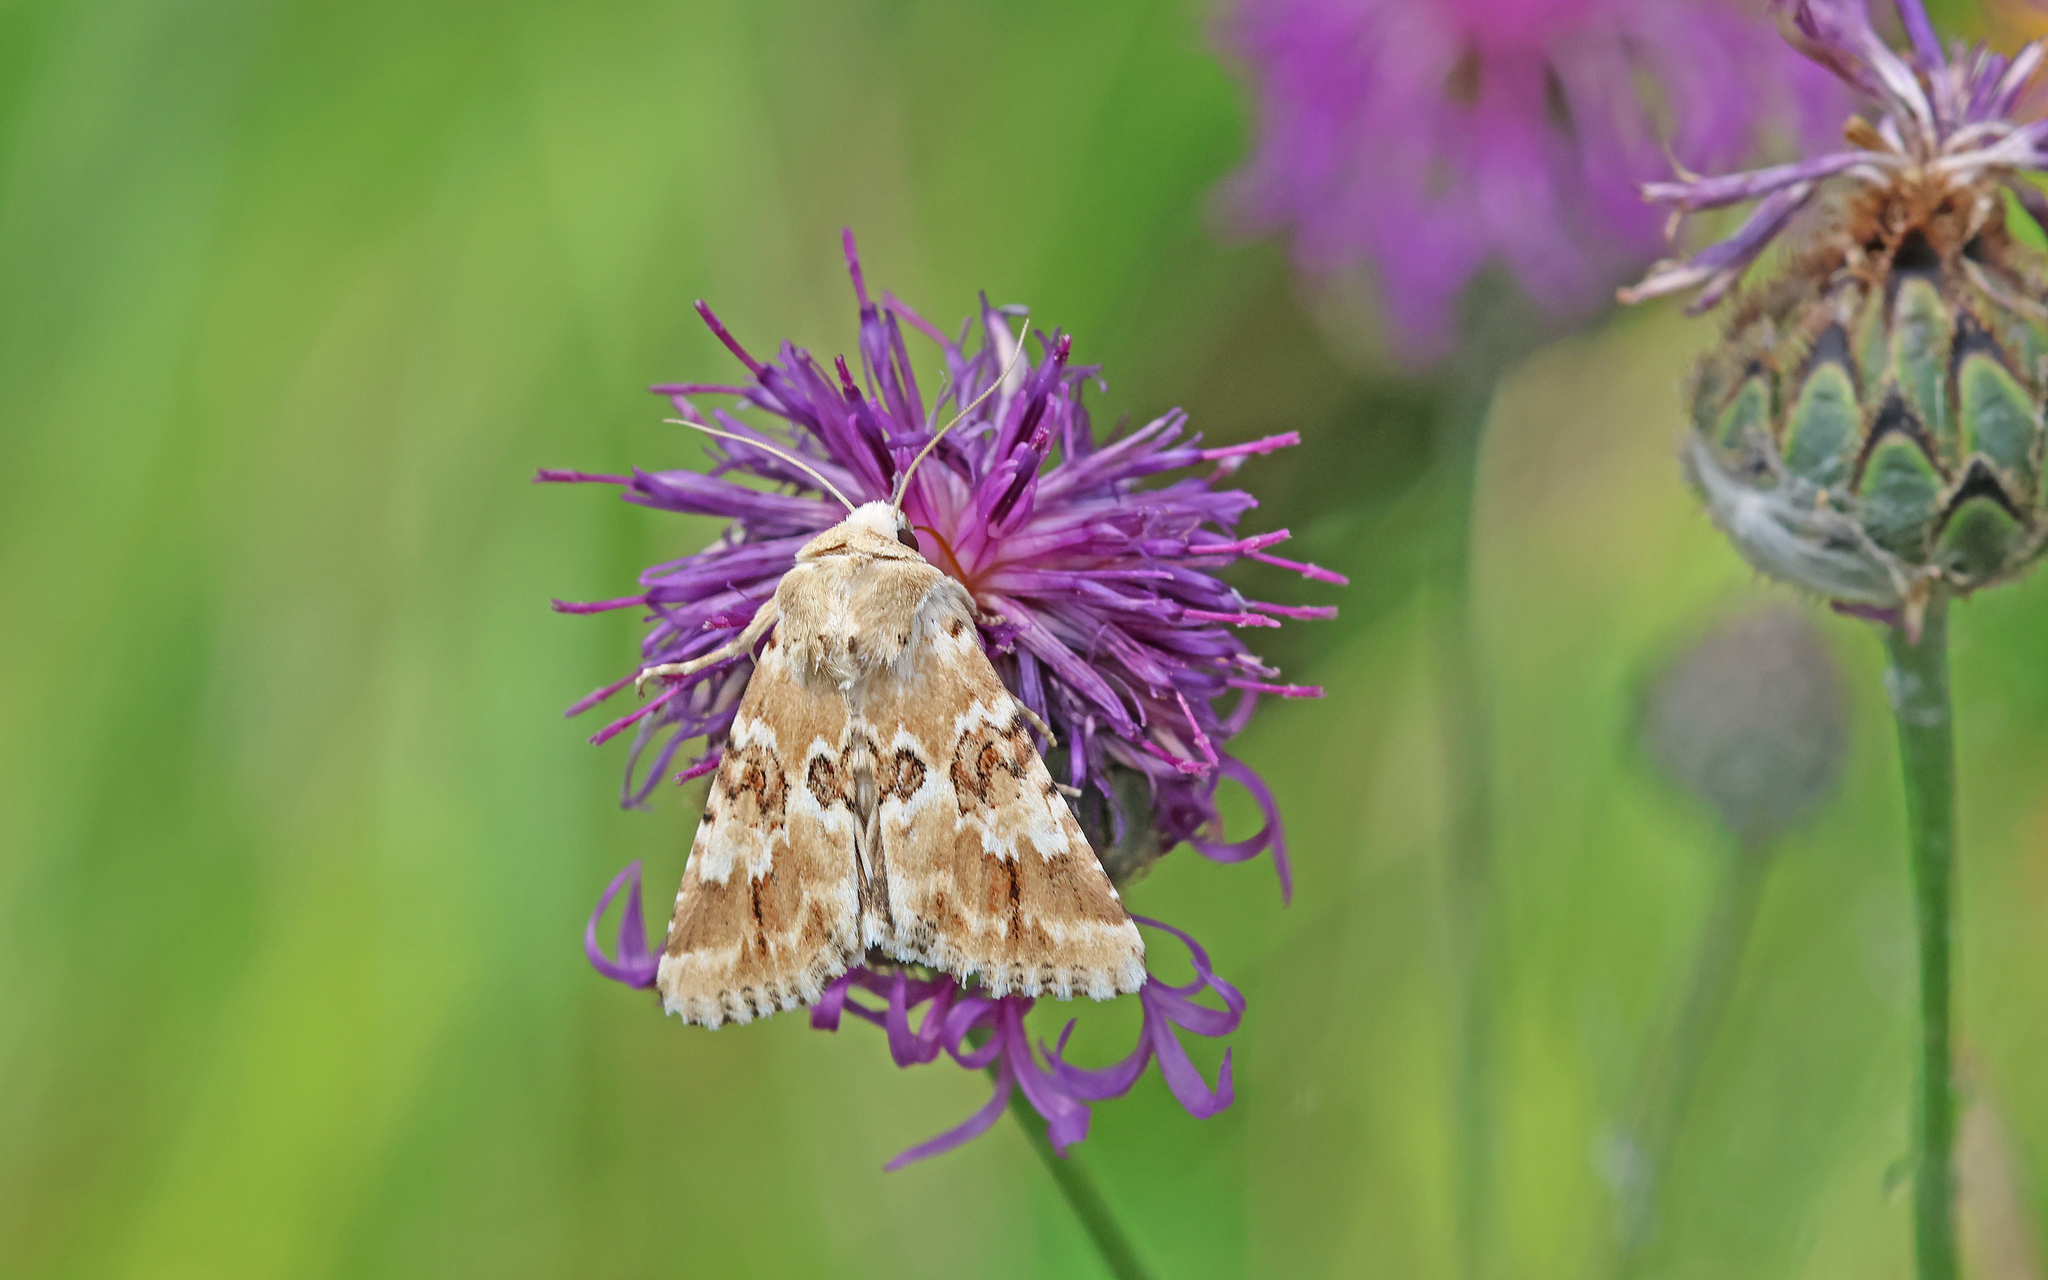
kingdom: Animalia
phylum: Arthropoda
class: Insecta
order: Lepidoptera
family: Noctuidae
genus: Eremobia
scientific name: Eremobia ochroleuca
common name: Dusky sallow
